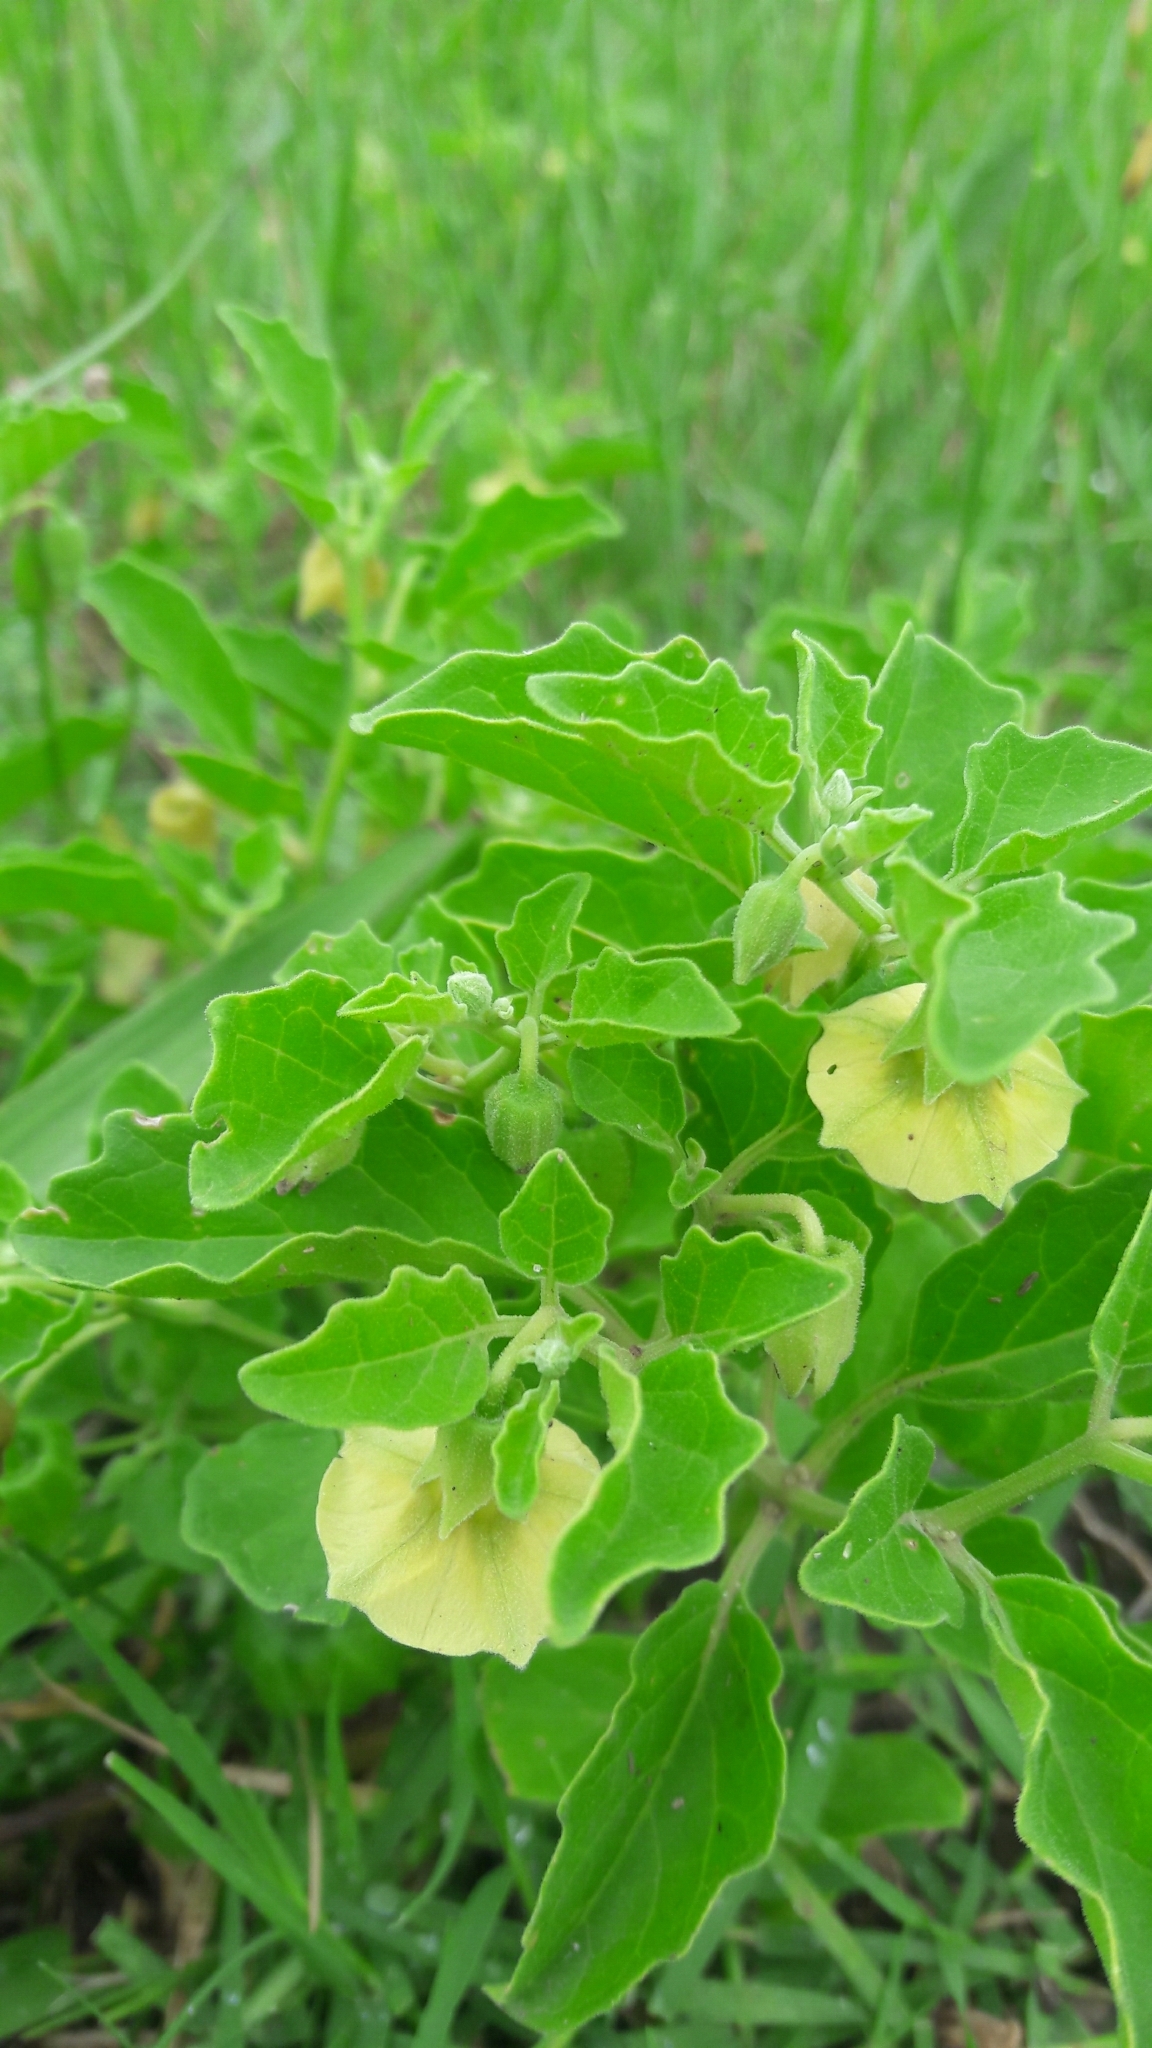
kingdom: Plantae
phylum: Tracheophyta
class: Magnoliopsida
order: Solanales
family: Solanaceae
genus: Physalis
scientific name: Physalis viscosa
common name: Stellate ground-cherry
